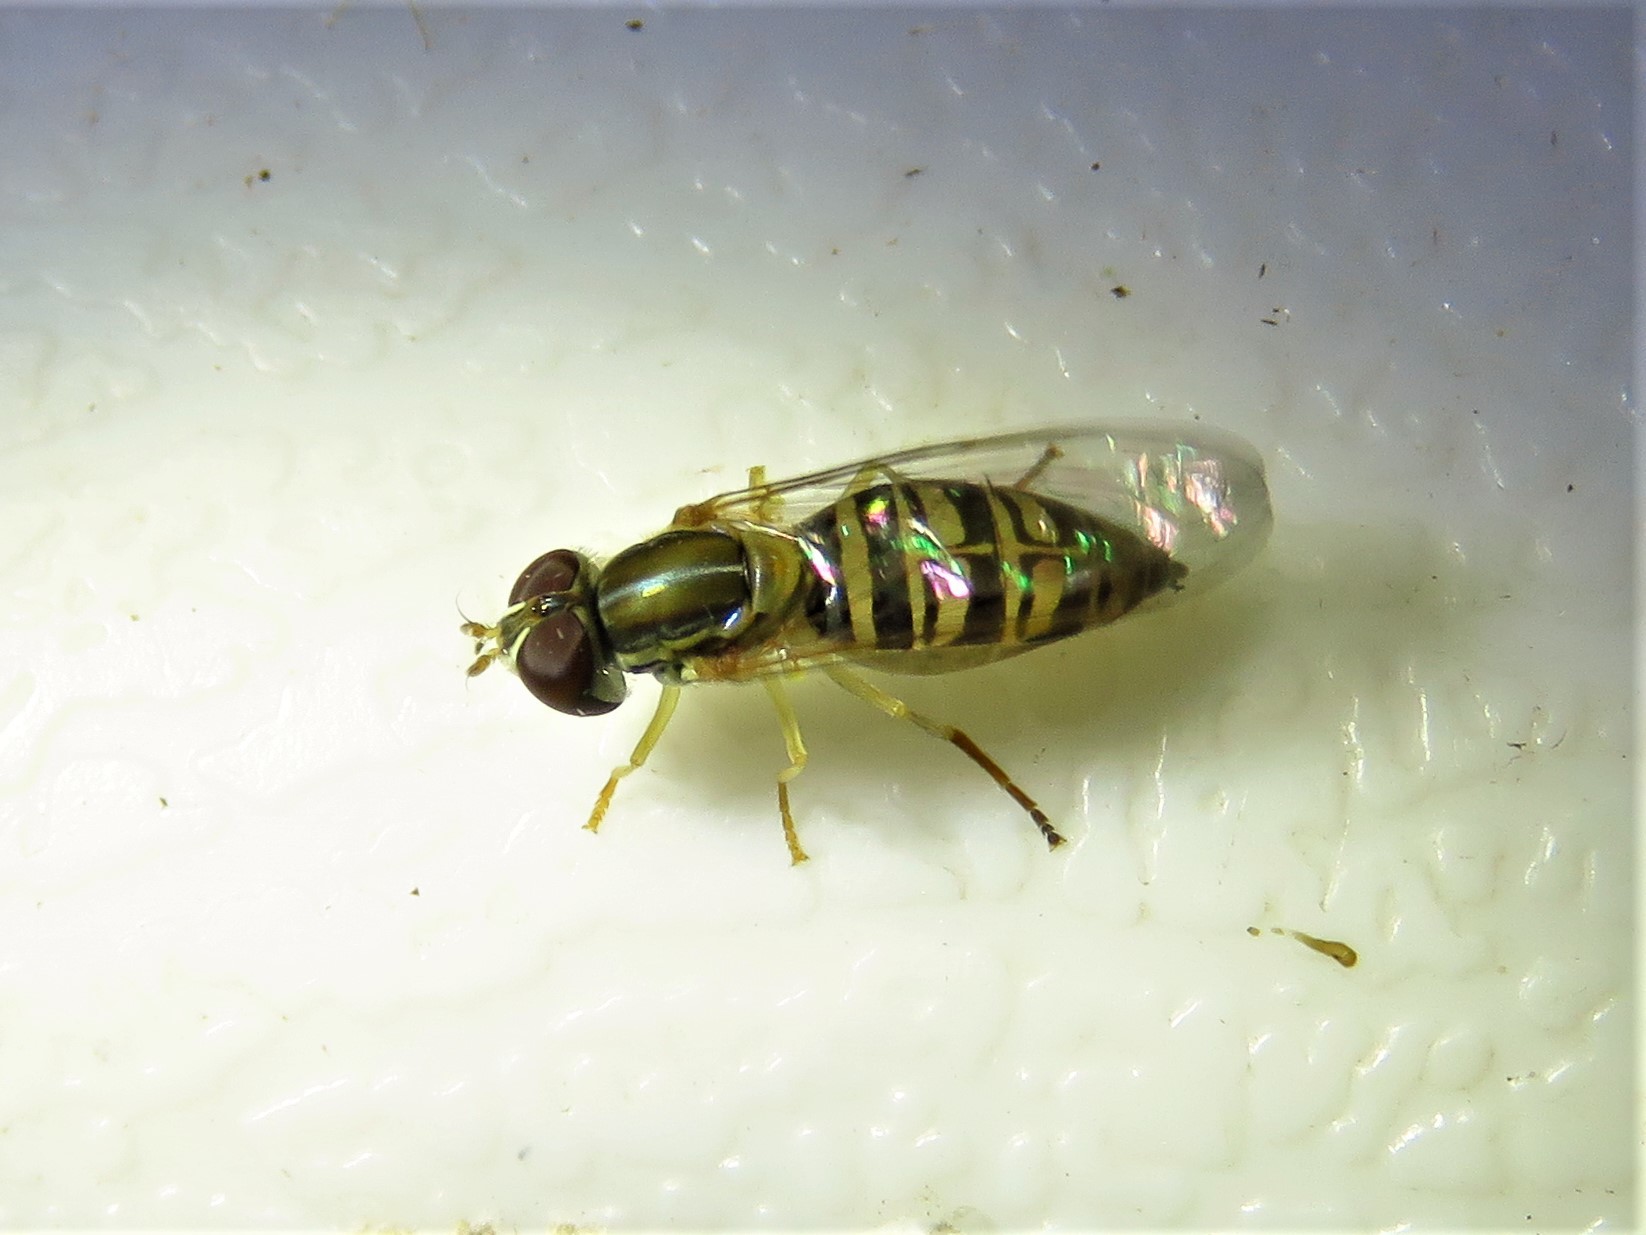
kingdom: Animalia
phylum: Arthropoda
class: Insecta
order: Diptera
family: Syrphidae
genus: Toxomerus
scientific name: Toxomerus politus
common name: Maize calligrapher
